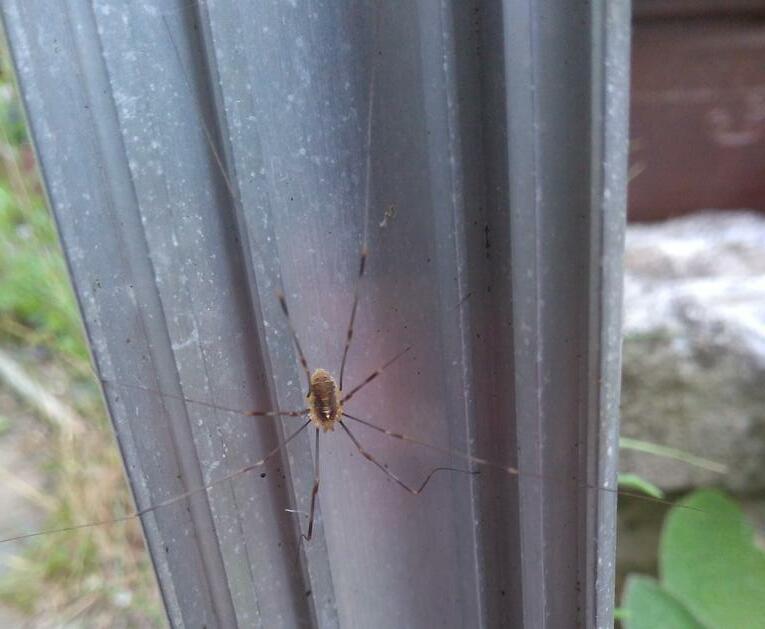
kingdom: Animalia
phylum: Arthropoda
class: Arachnida
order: Opiliones
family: Phalangiidae
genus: Opilio
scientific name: Opilio canestrinii
